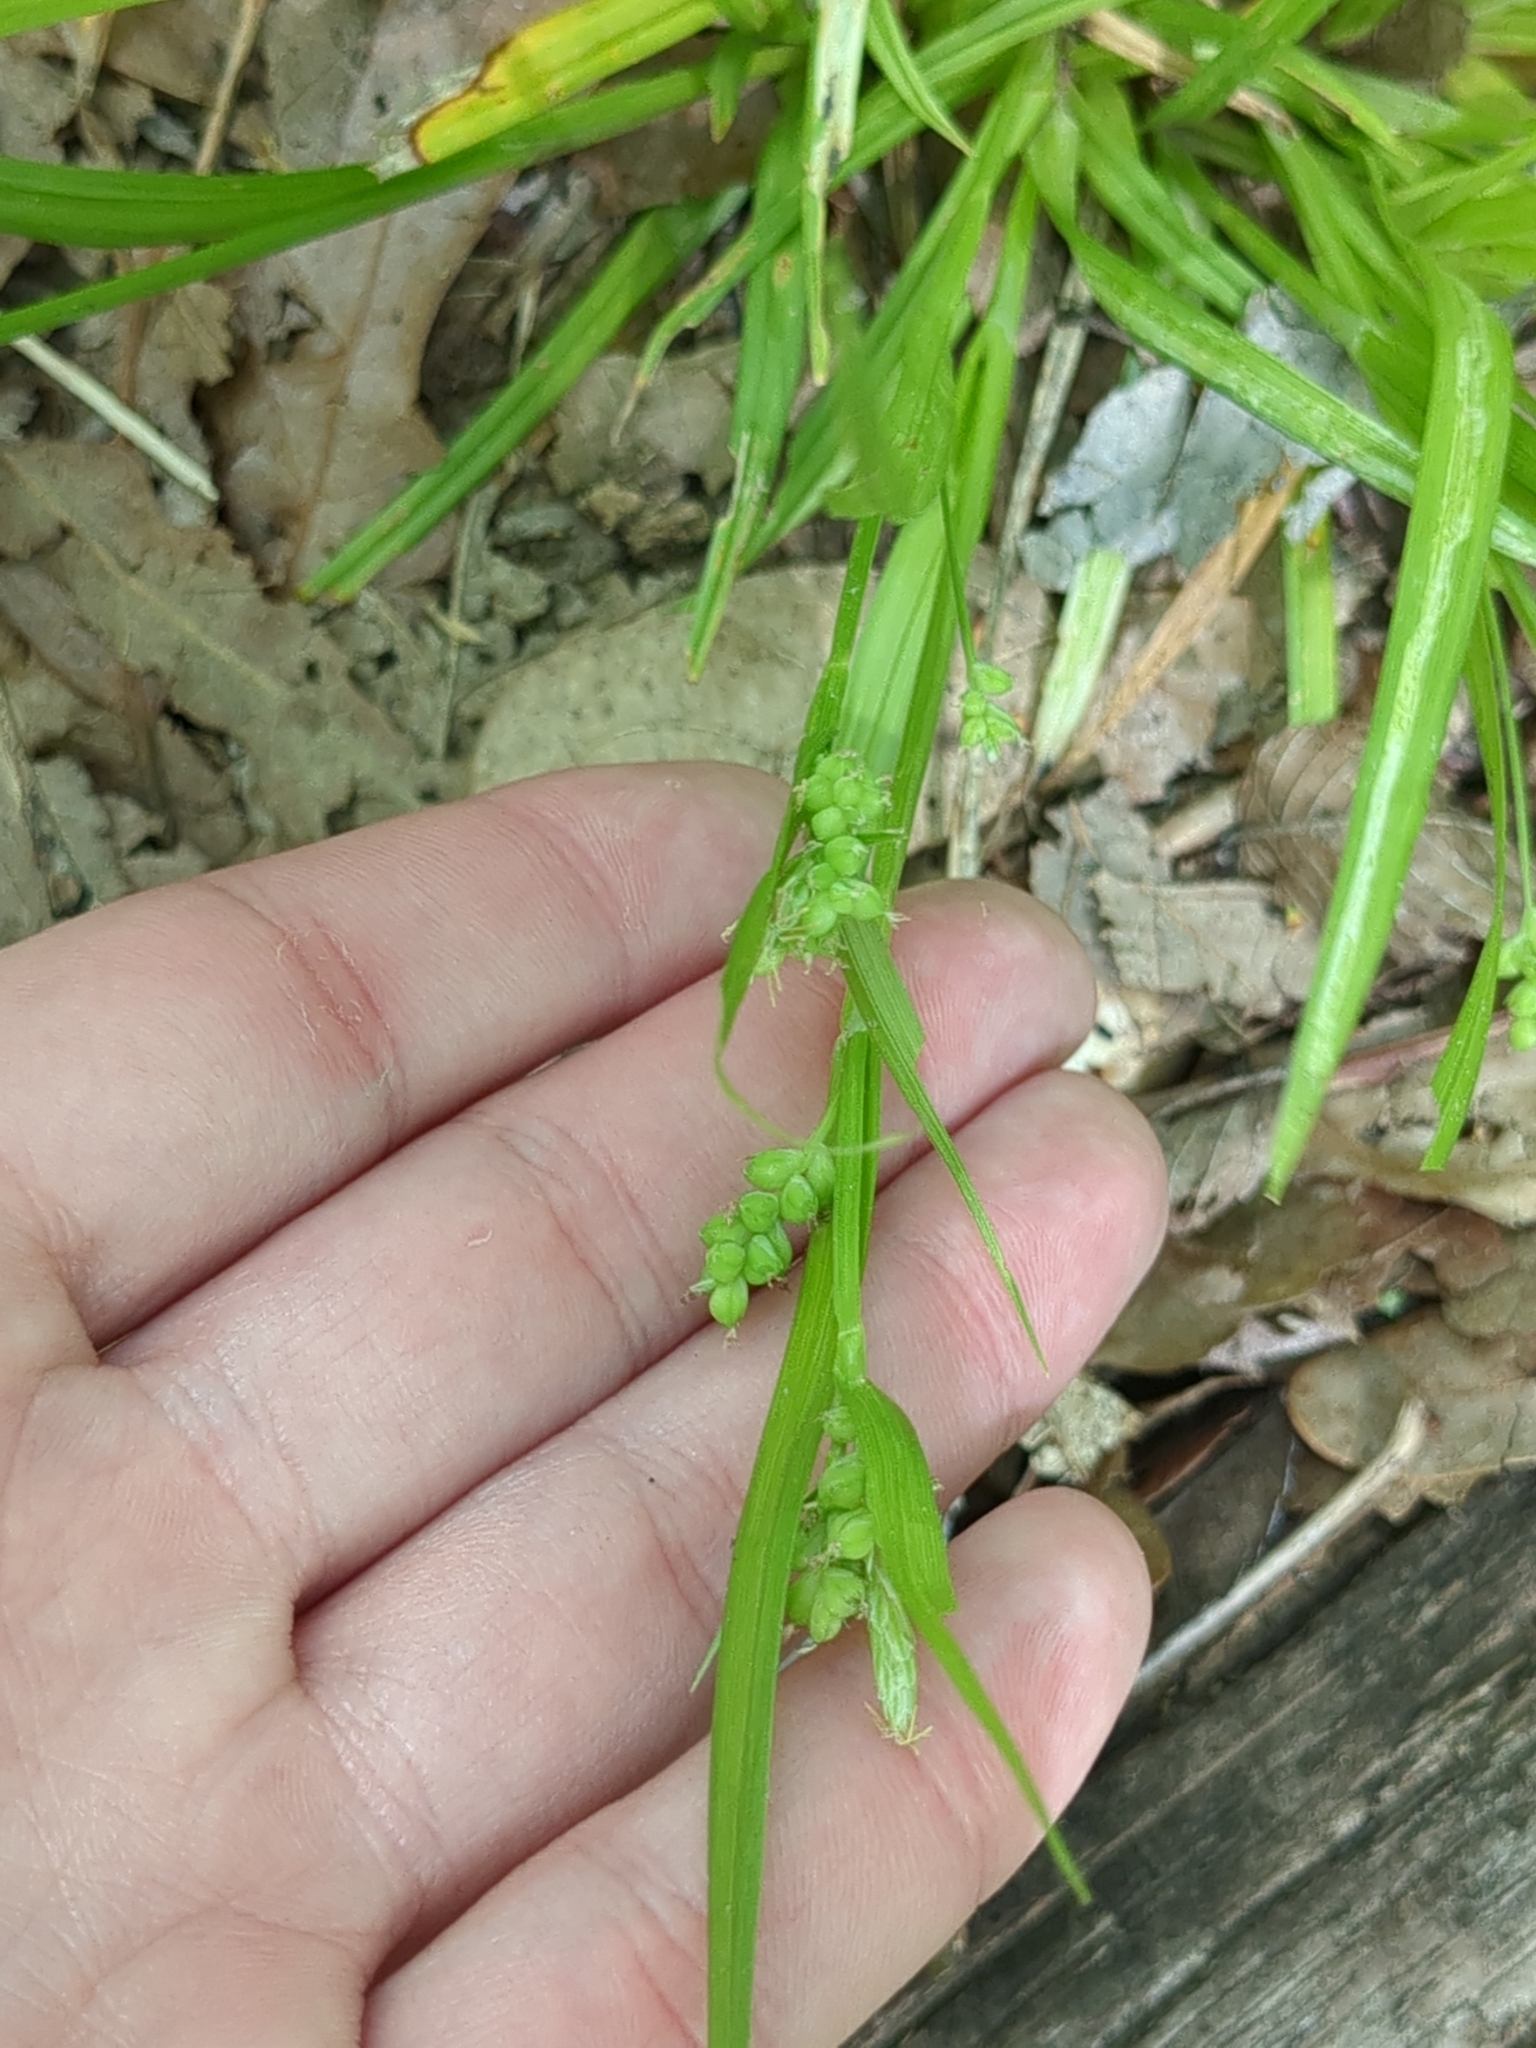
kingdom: Plantae
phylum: Tracheophyta
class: Liliopsida
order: Poales
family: Cyperaceae
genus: Carex
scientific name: Carex blanda
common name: Bland sedge
